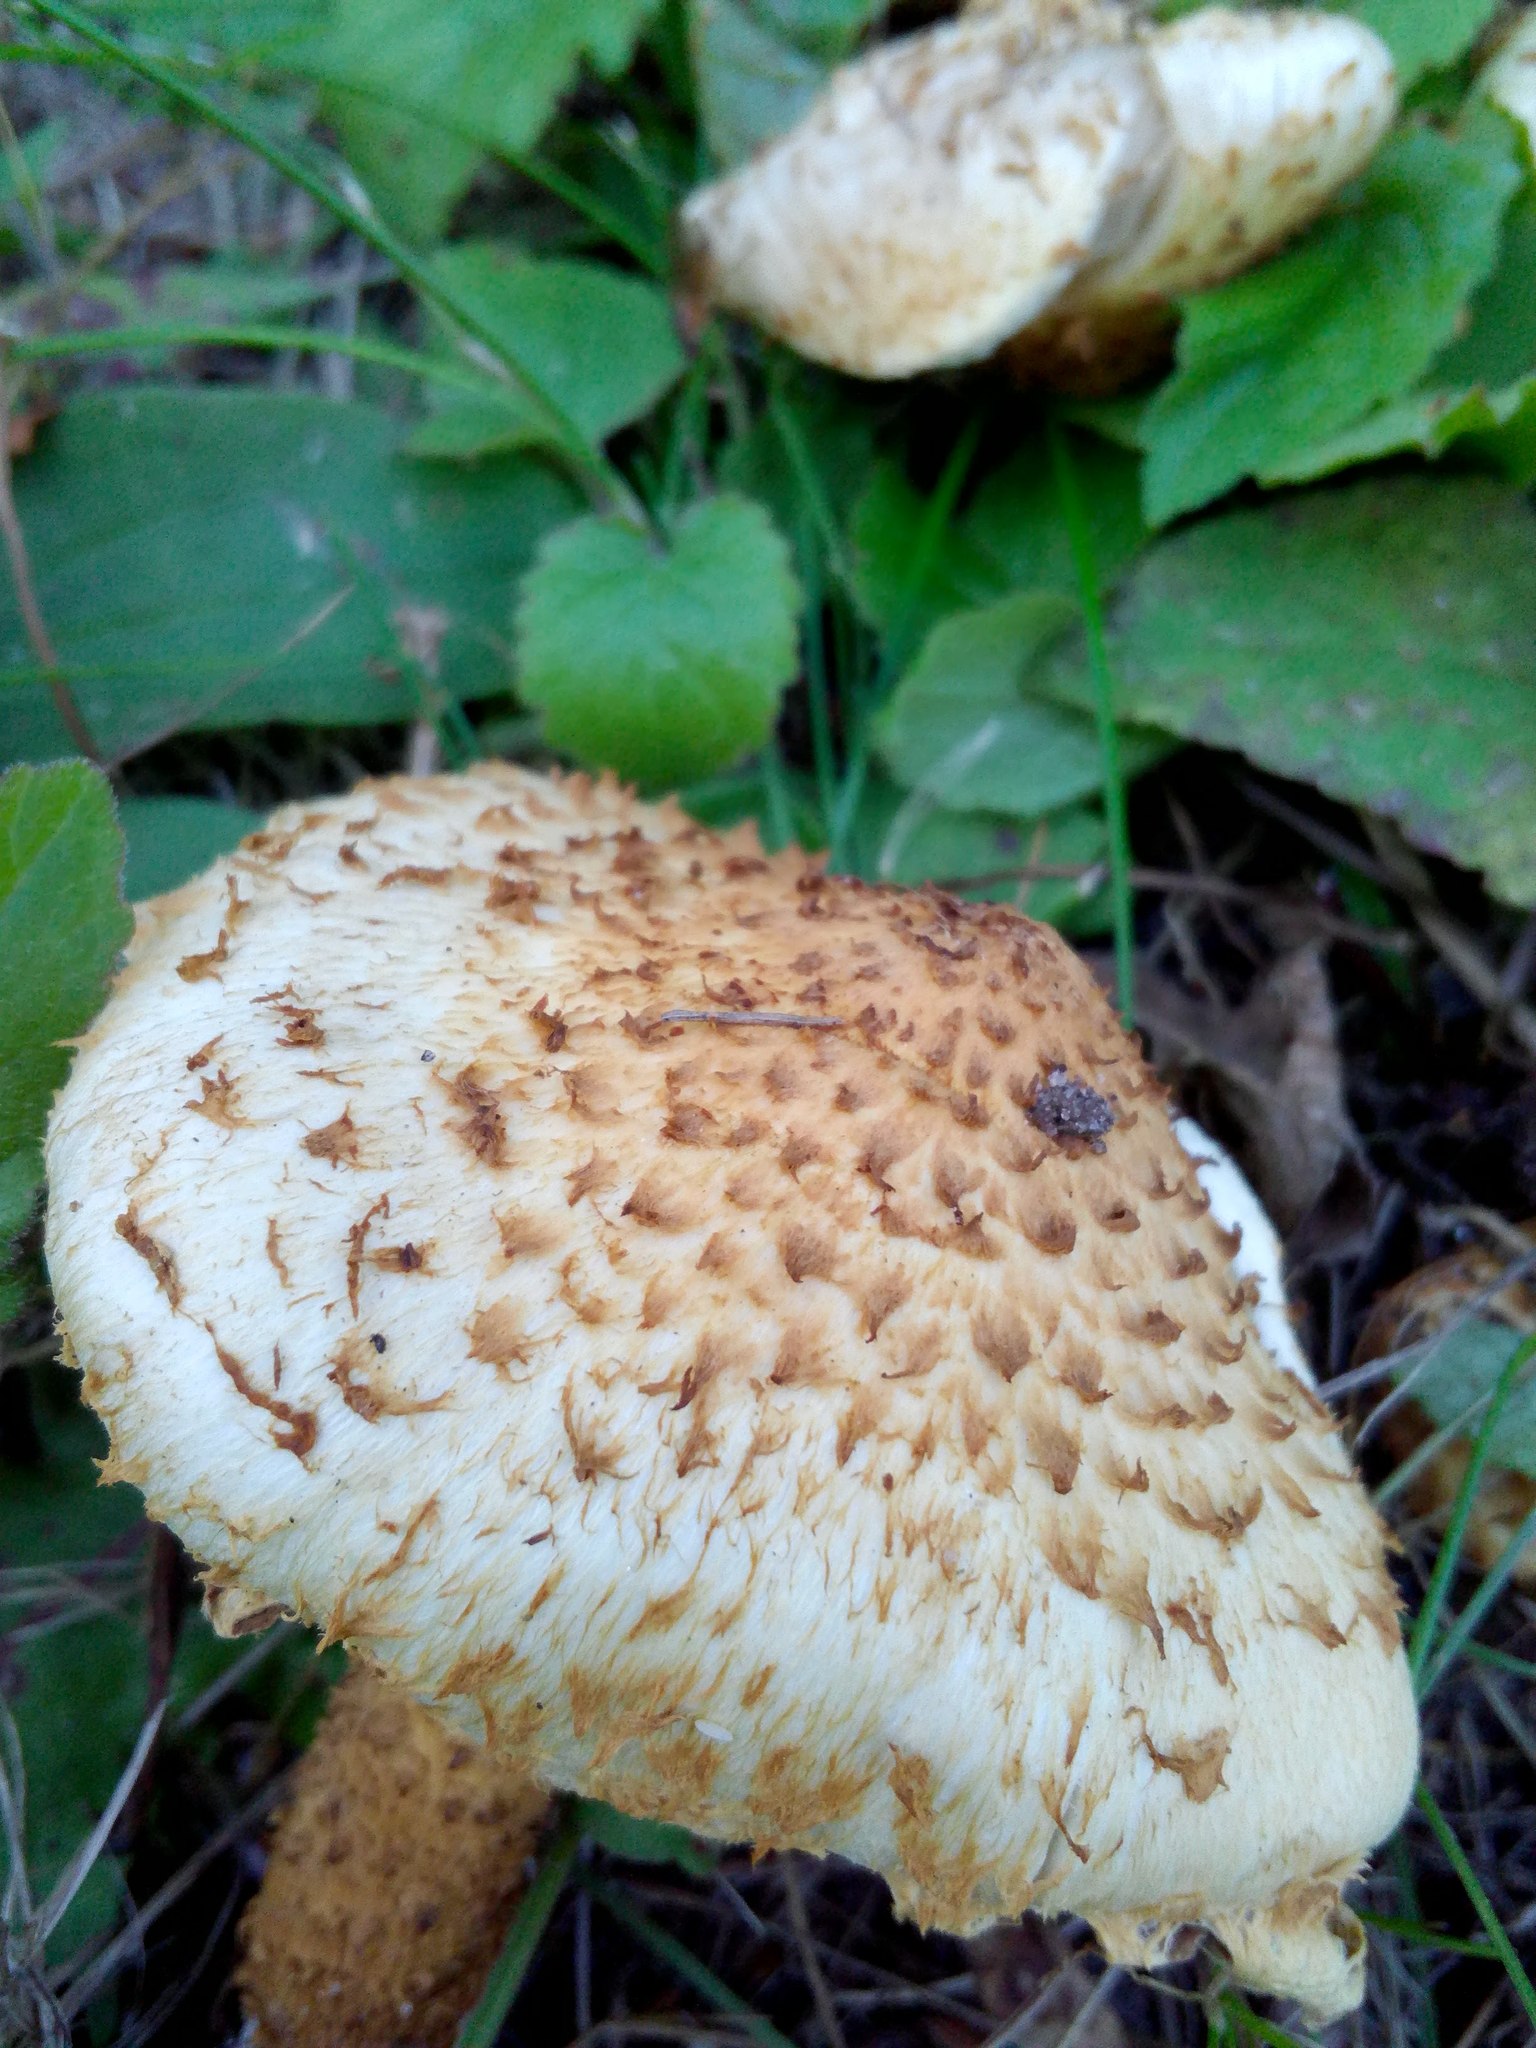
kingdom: Fungi
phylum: Basidiomycota
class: Agaricomycetes
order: Agaricales
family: Strophariaceae
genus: Pholiota
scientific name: Pholiota kodiakensis
